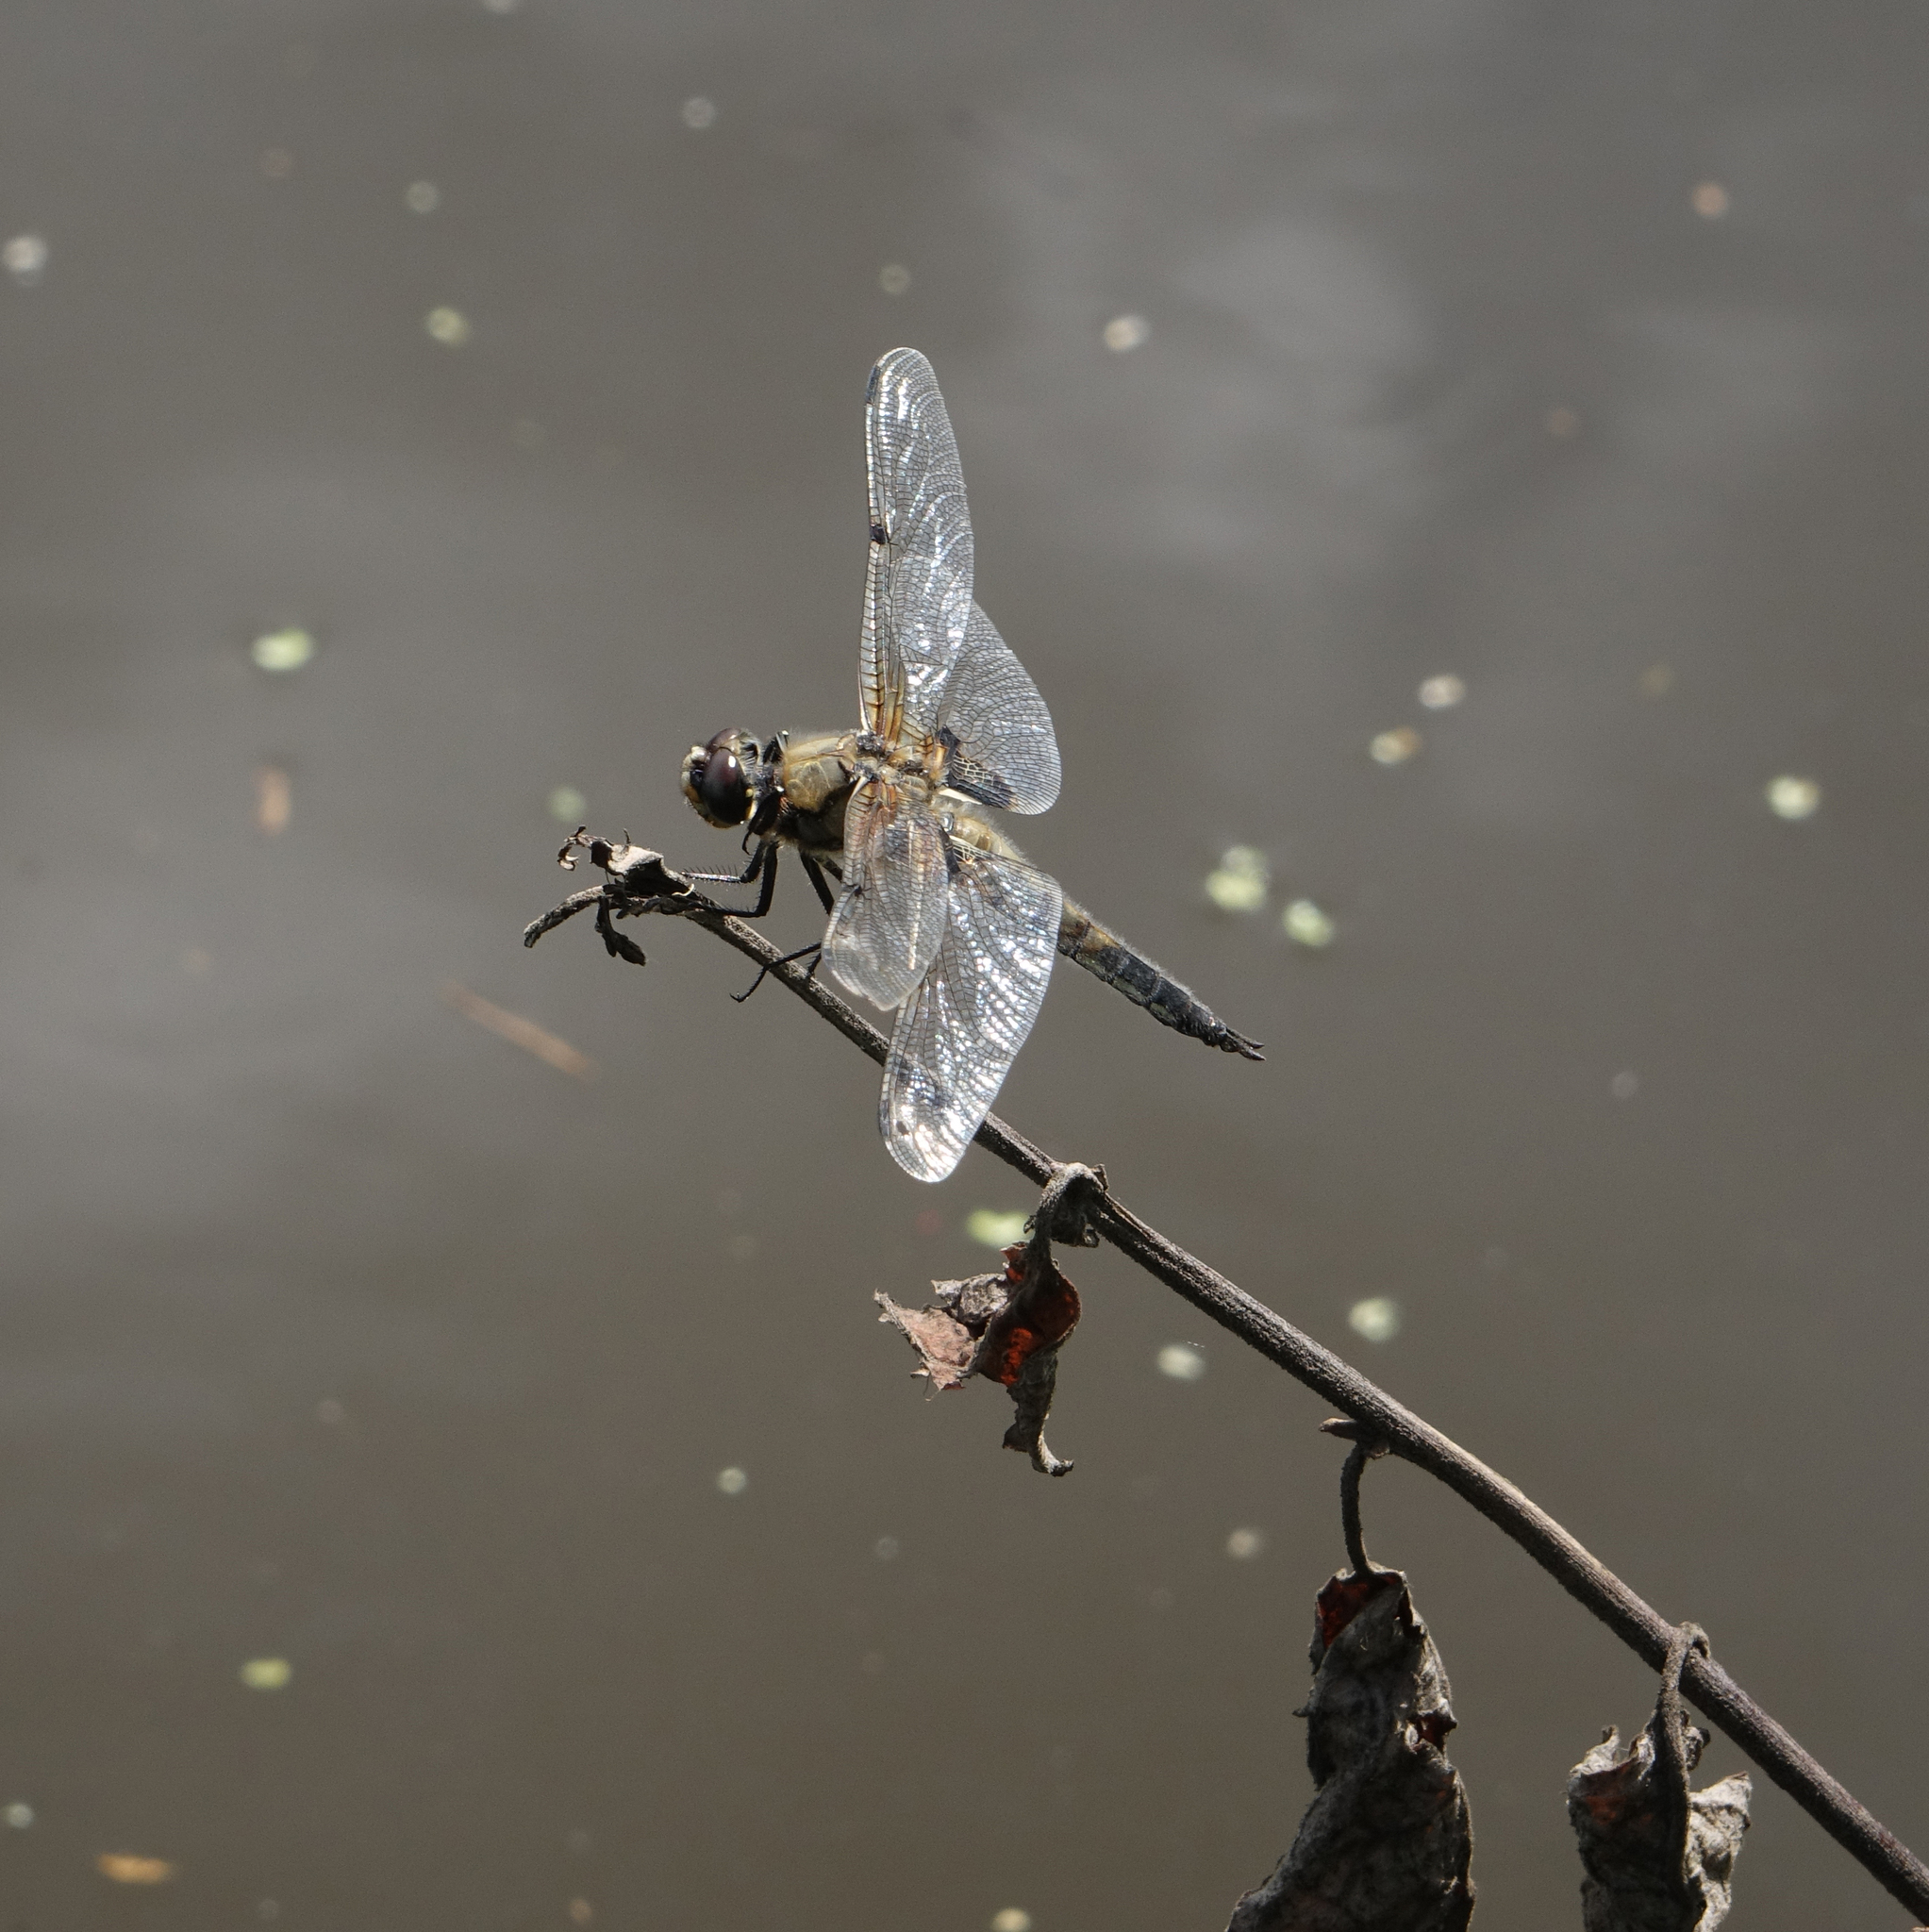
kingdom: Animalia
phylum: Arthropoda
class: Insecta
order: Odonata
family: Libellulidae
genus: Libellula
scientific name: Libellula quadrimaculata
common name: Four-spotted chaser
